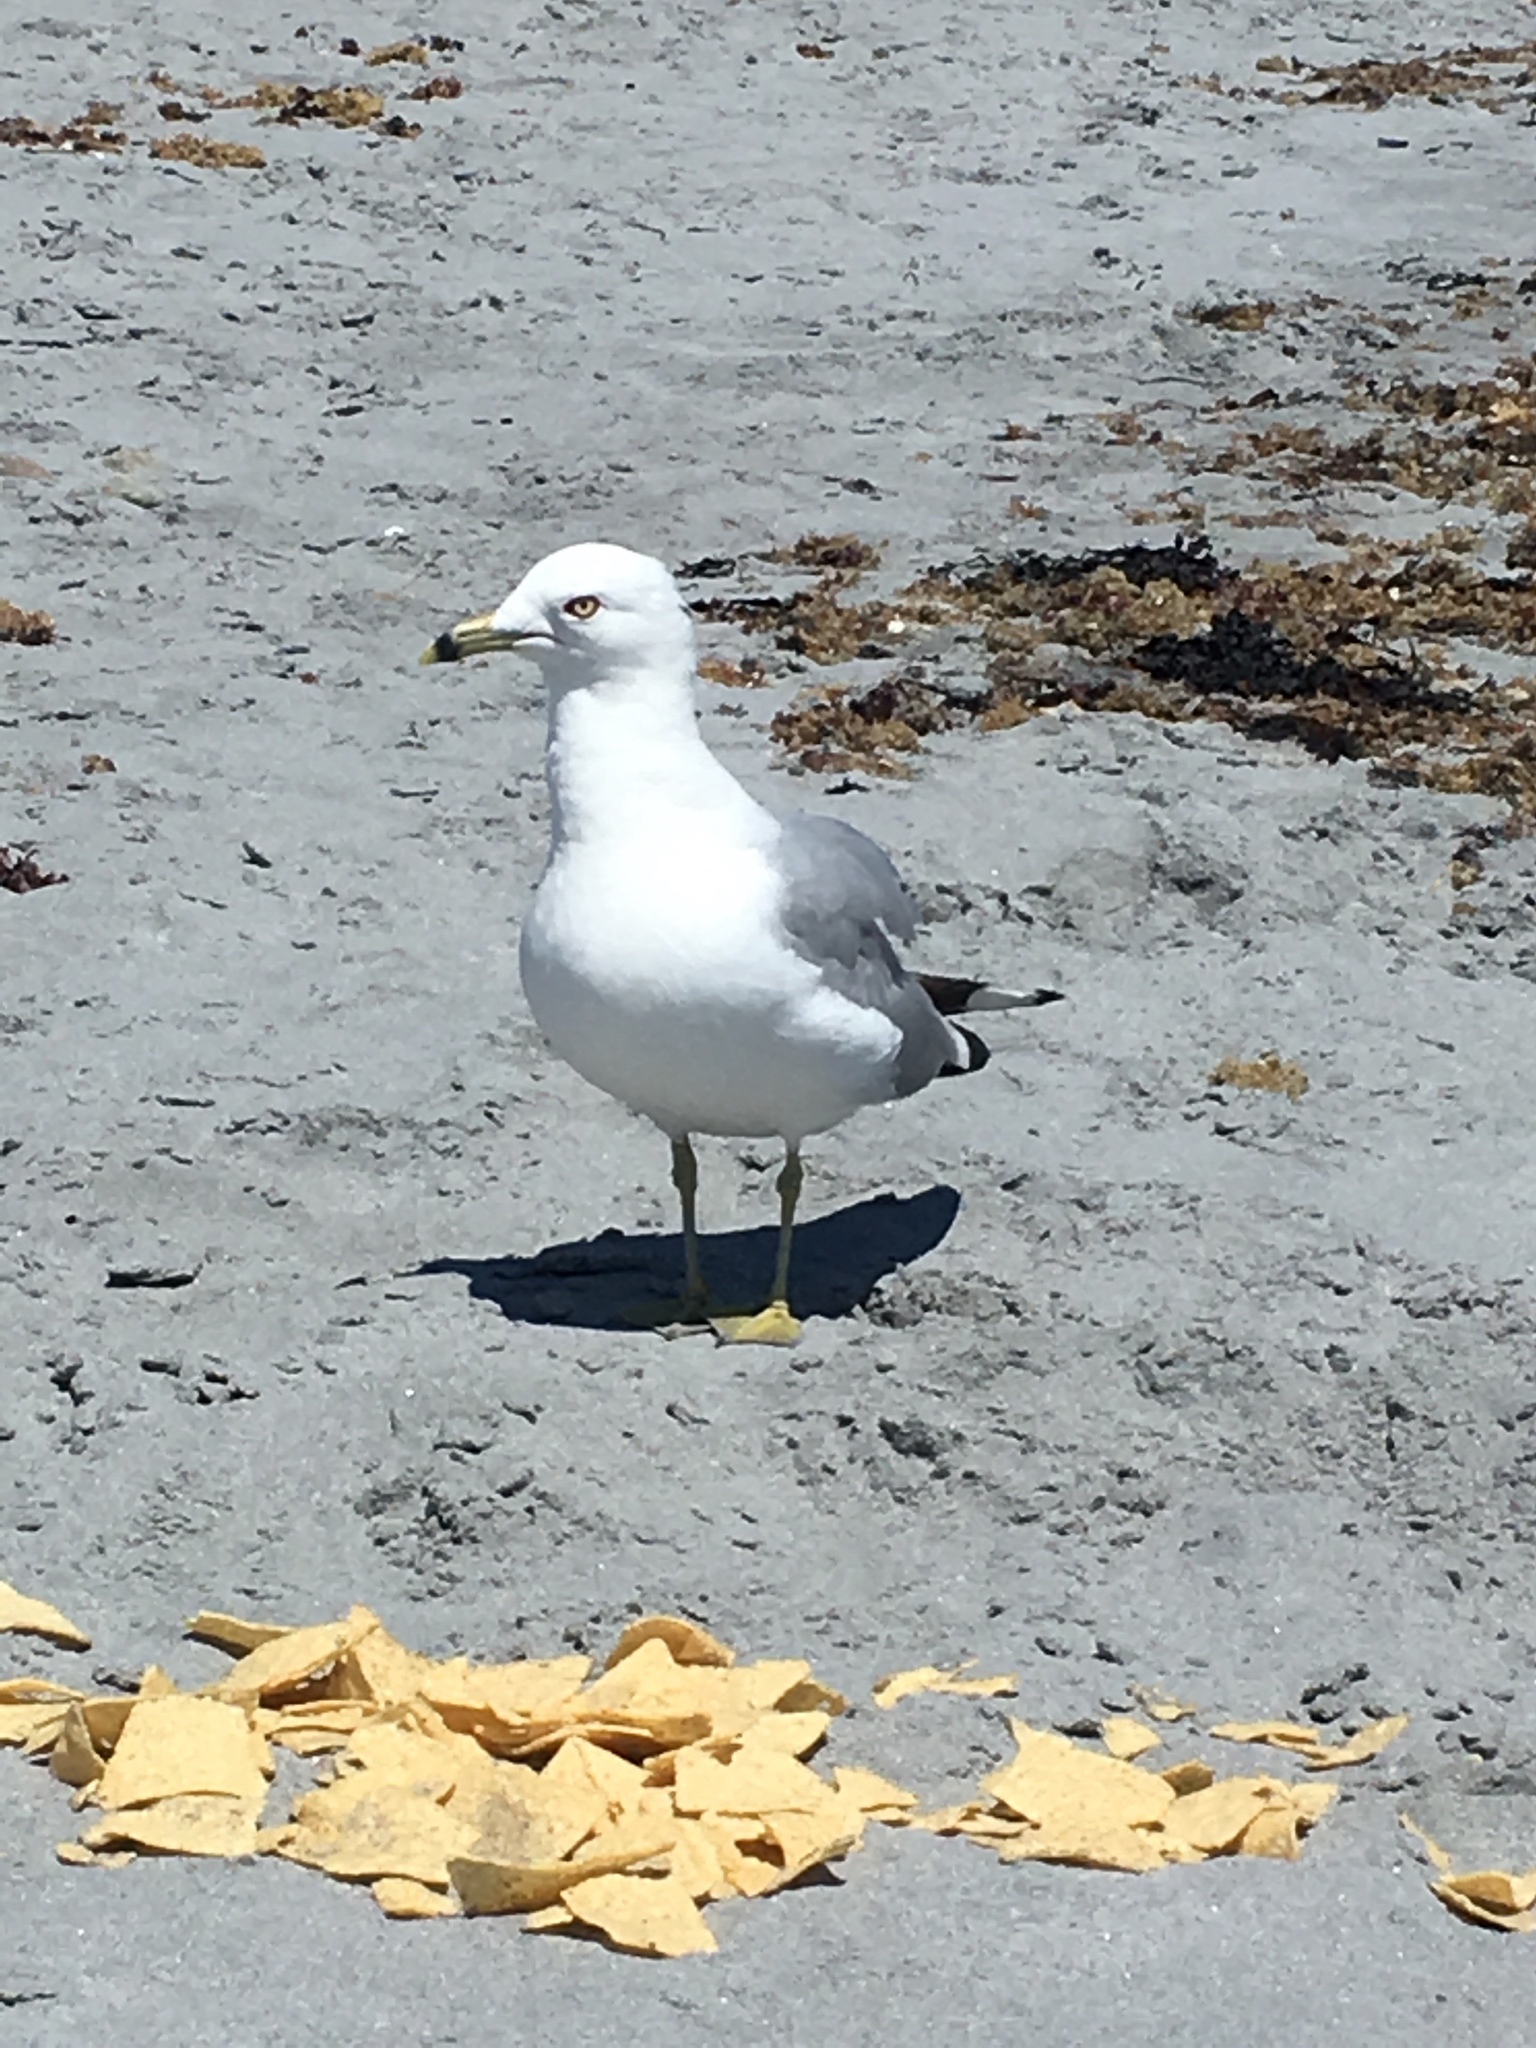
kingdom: Animalia
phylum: Chordata
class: Aves
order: Charadriiformes
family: Laridae
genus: Larus
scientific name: Larus delawarensis
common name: Ring-billed gull
